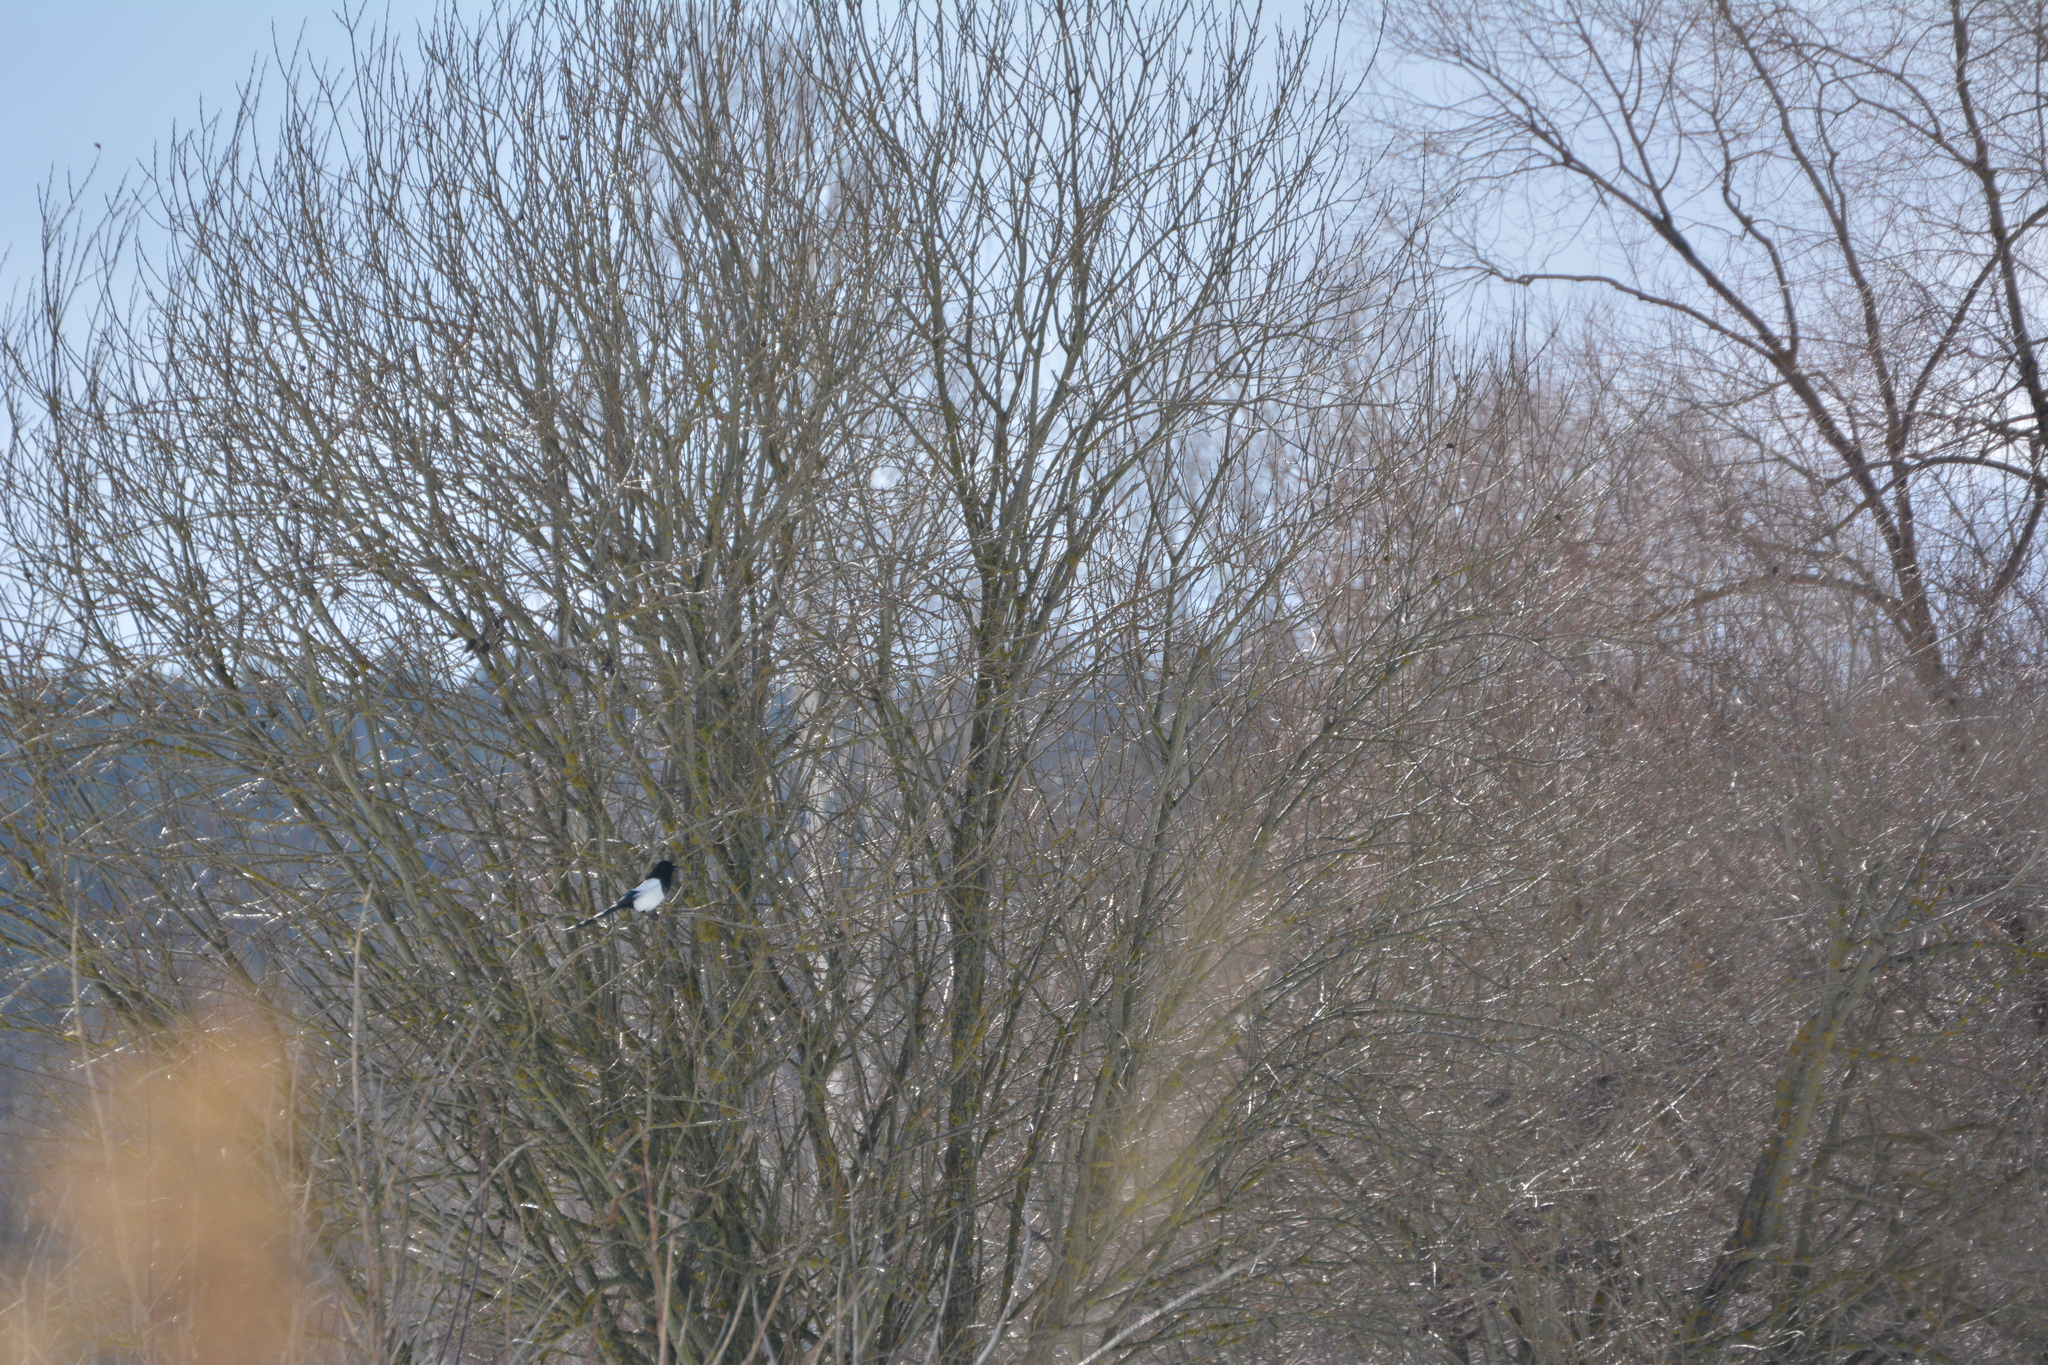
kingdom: Animalia
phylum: Chordata
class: Aves
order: Passeriformes
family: Corvidae
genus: Pica
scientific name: Pica pica
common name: Eurasian magpie
